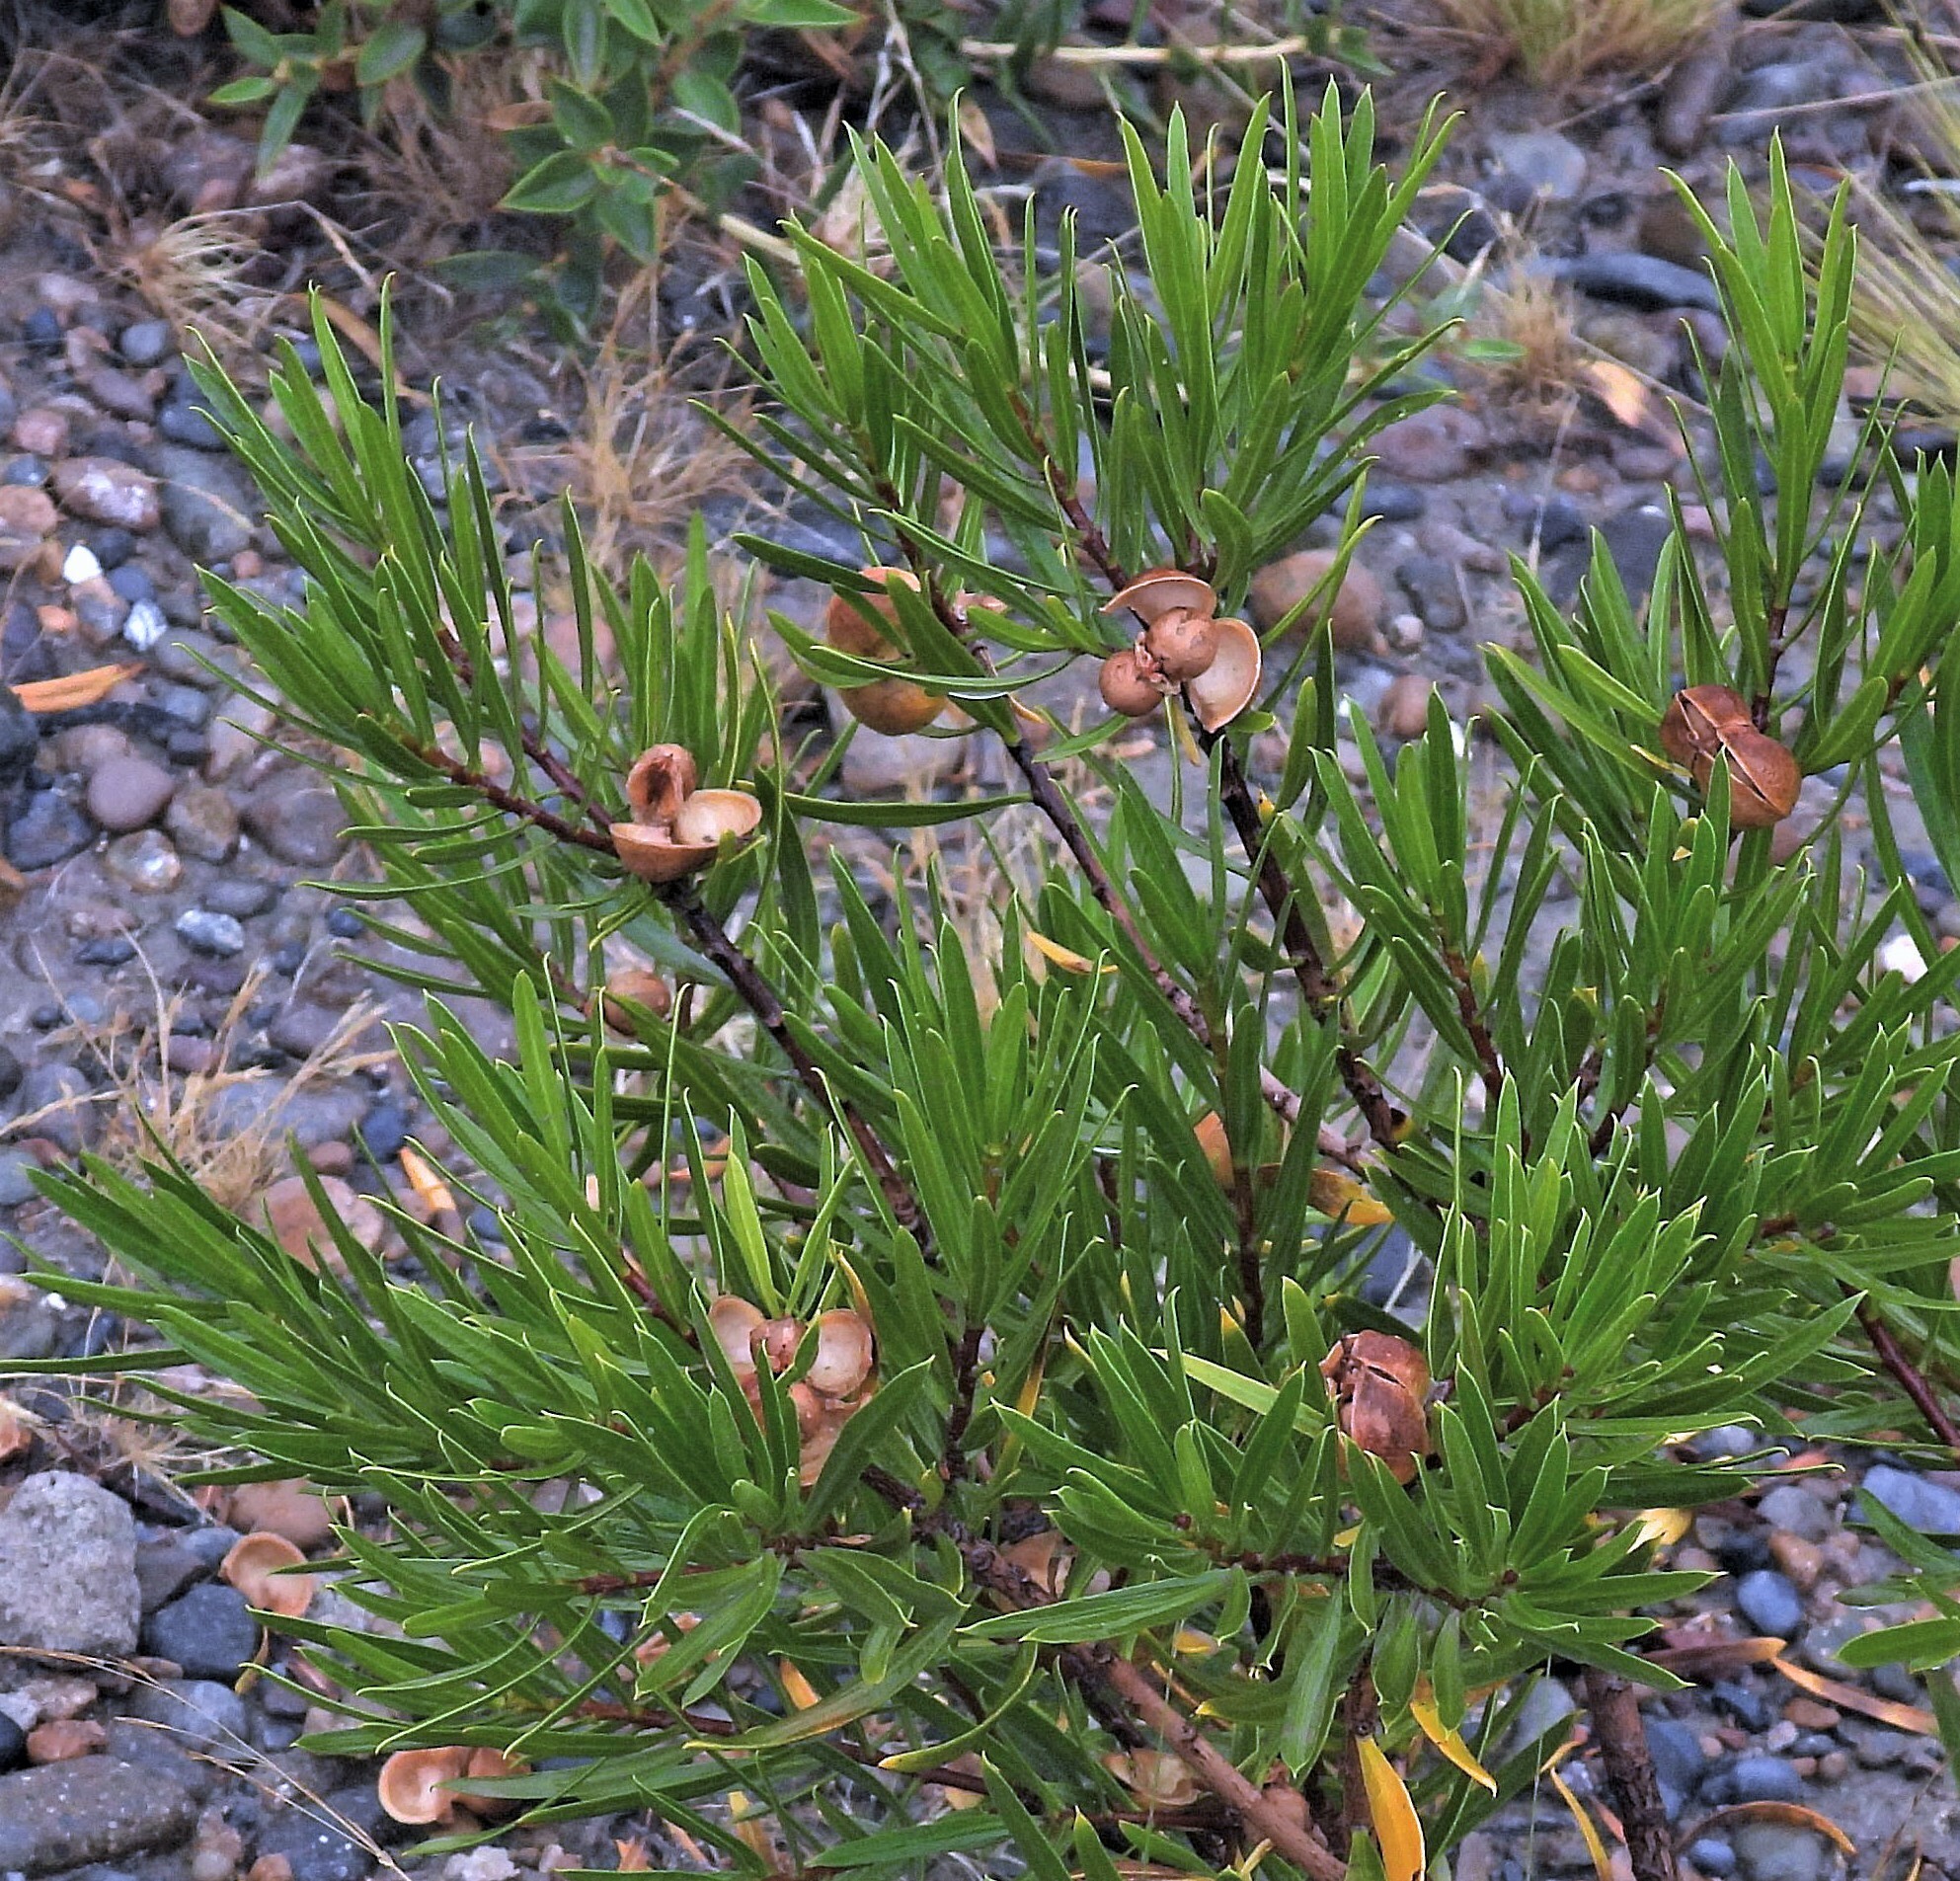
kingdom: Plantae
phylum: Tracheophyta
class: Magnoliopsida
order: Malpighiales
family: Euphorbiaceae
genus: Colliguaja
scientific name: Colliguaja integerrima
